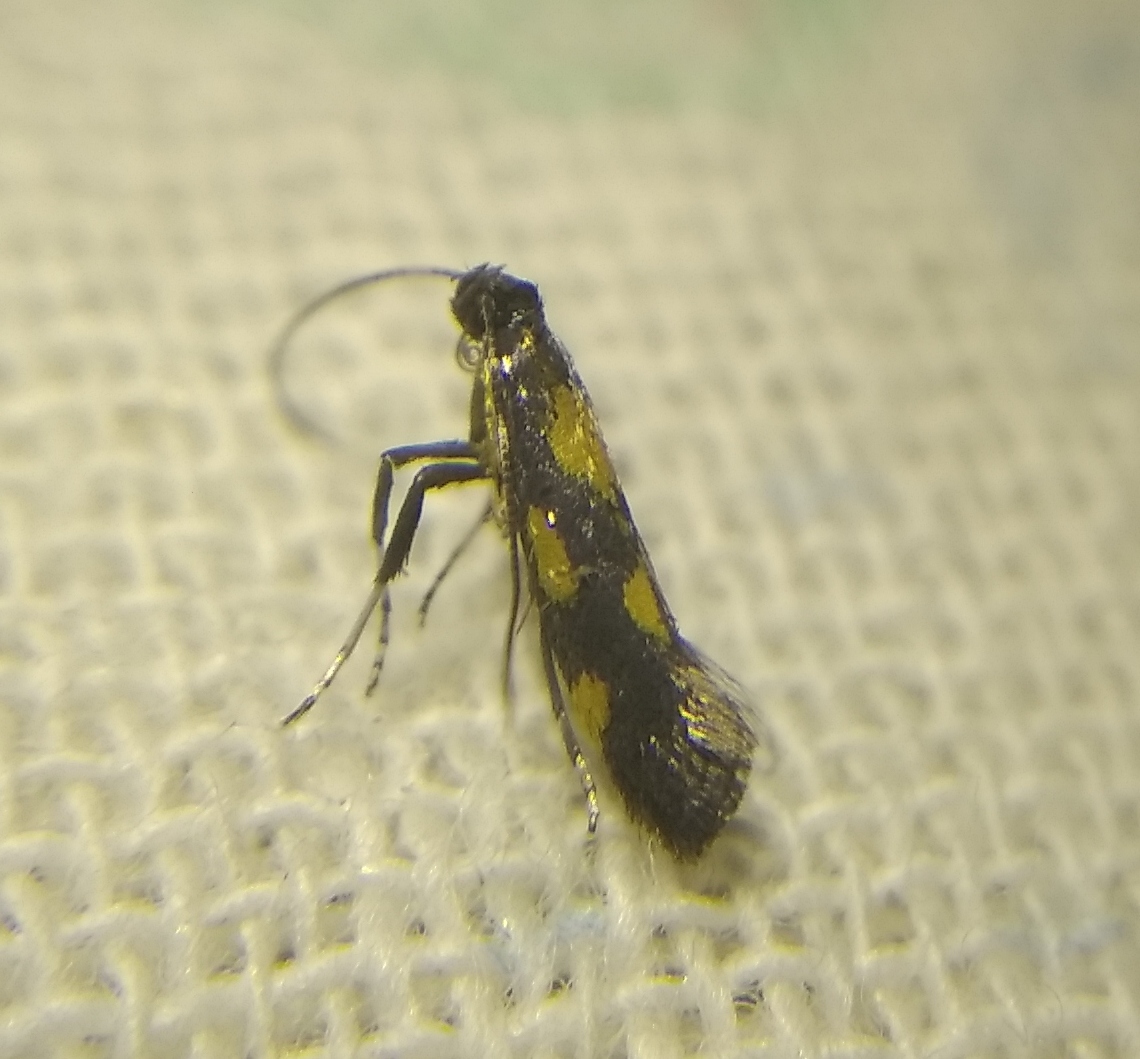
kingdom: Animalia
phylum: Arthropoda
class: Insecta
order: Lepidoptera
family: Gracillariidae
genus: Euspilapteryx
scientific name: Euspilapteryx auroguttella
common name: Gold-dot slender
